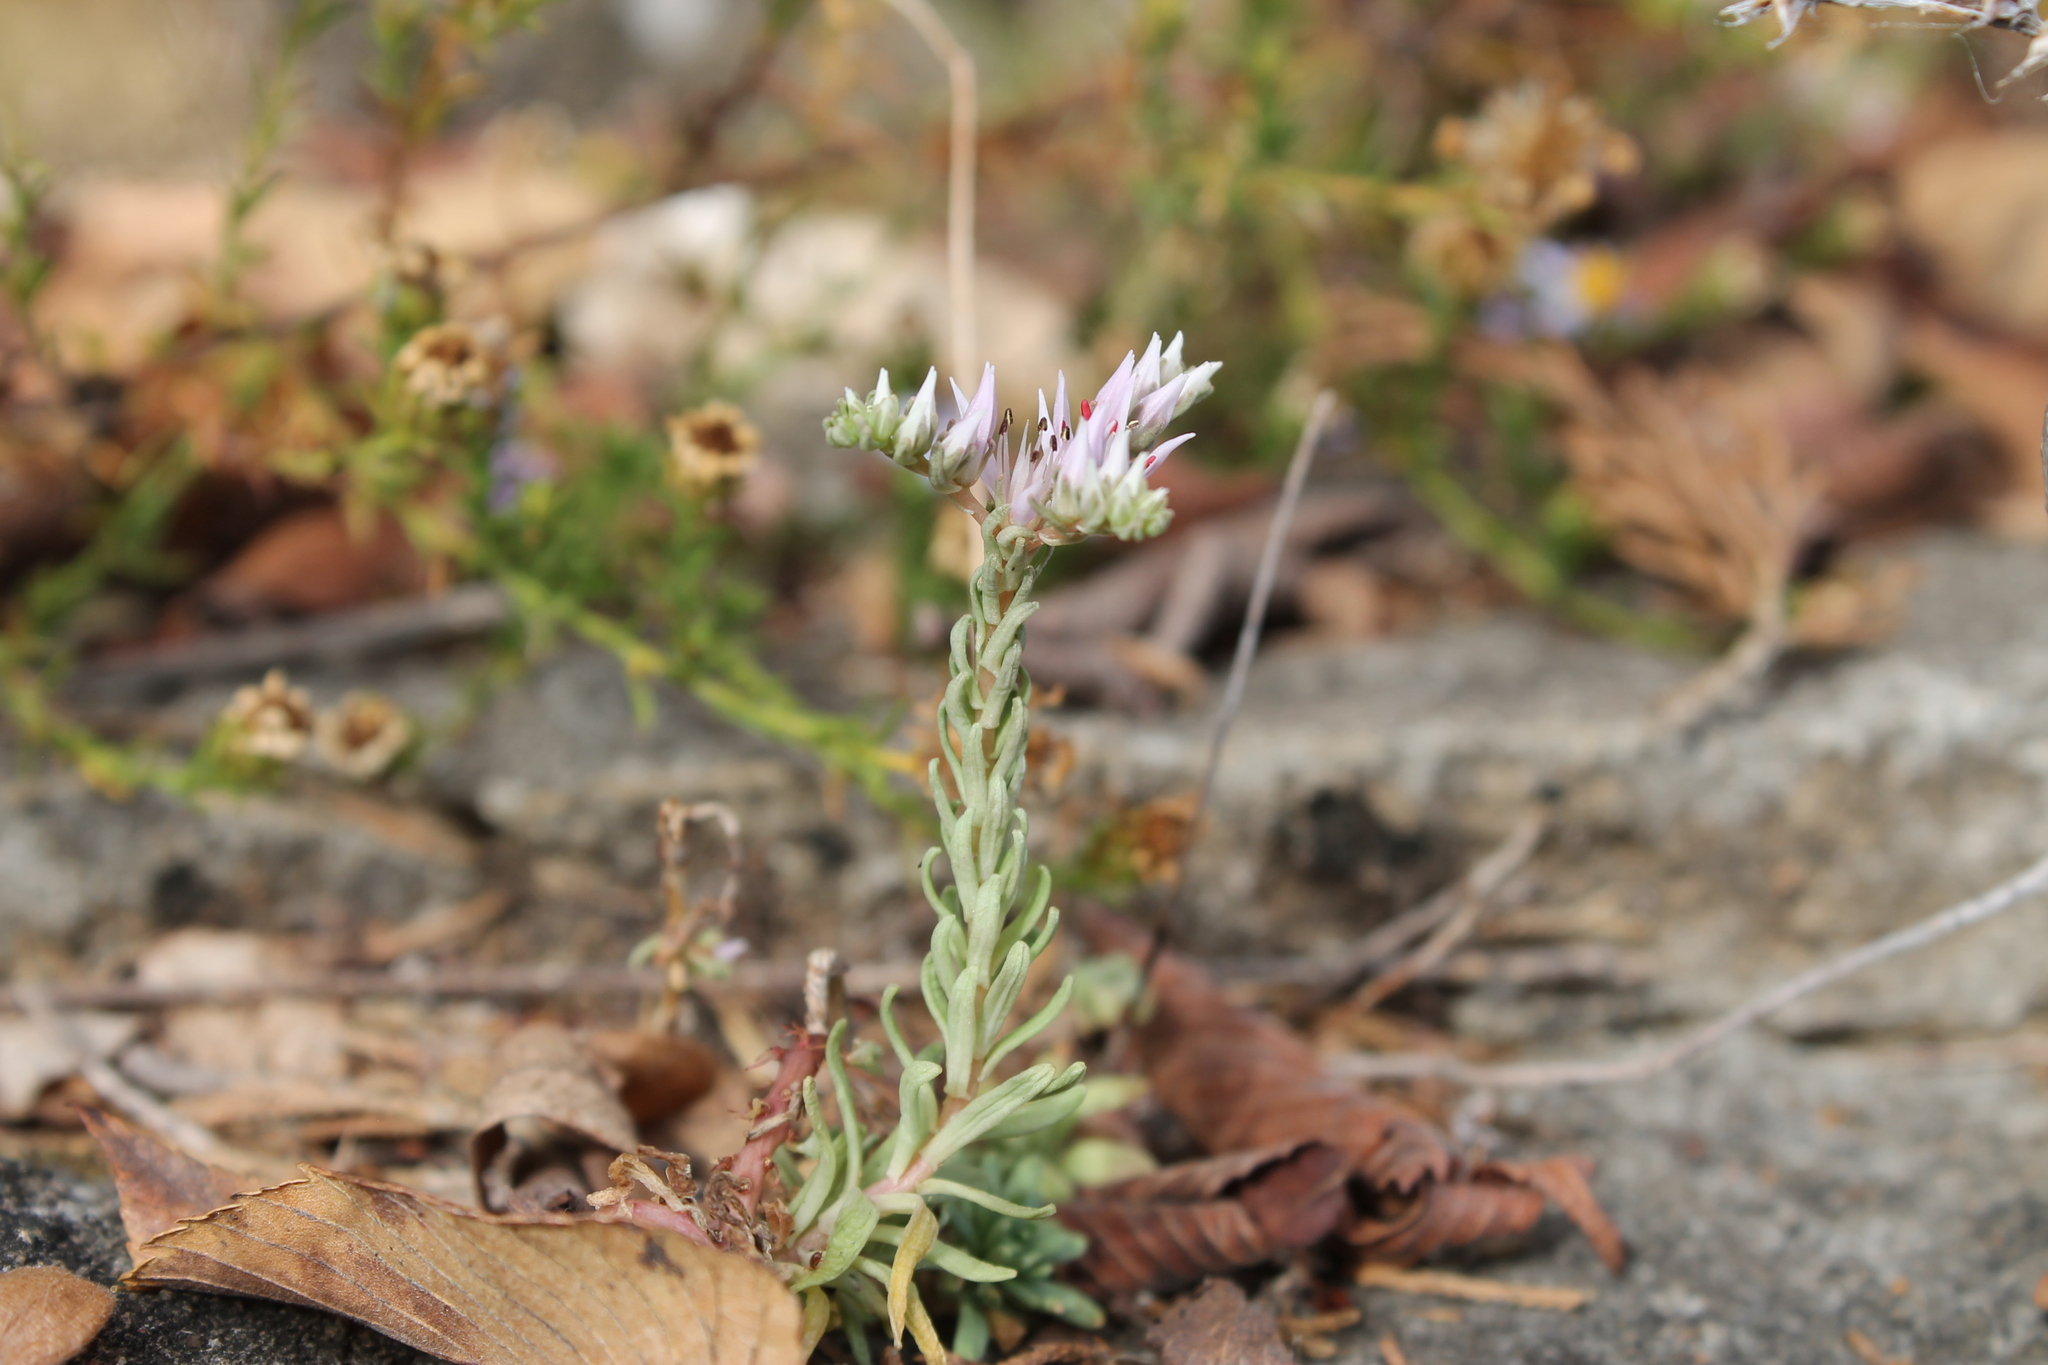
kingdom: Plantae
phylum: Tracheophyta
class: Magnoliopsida
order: Saxifragales
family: Crassulaceae
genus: Sedum
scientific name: Sedum pulchellum
